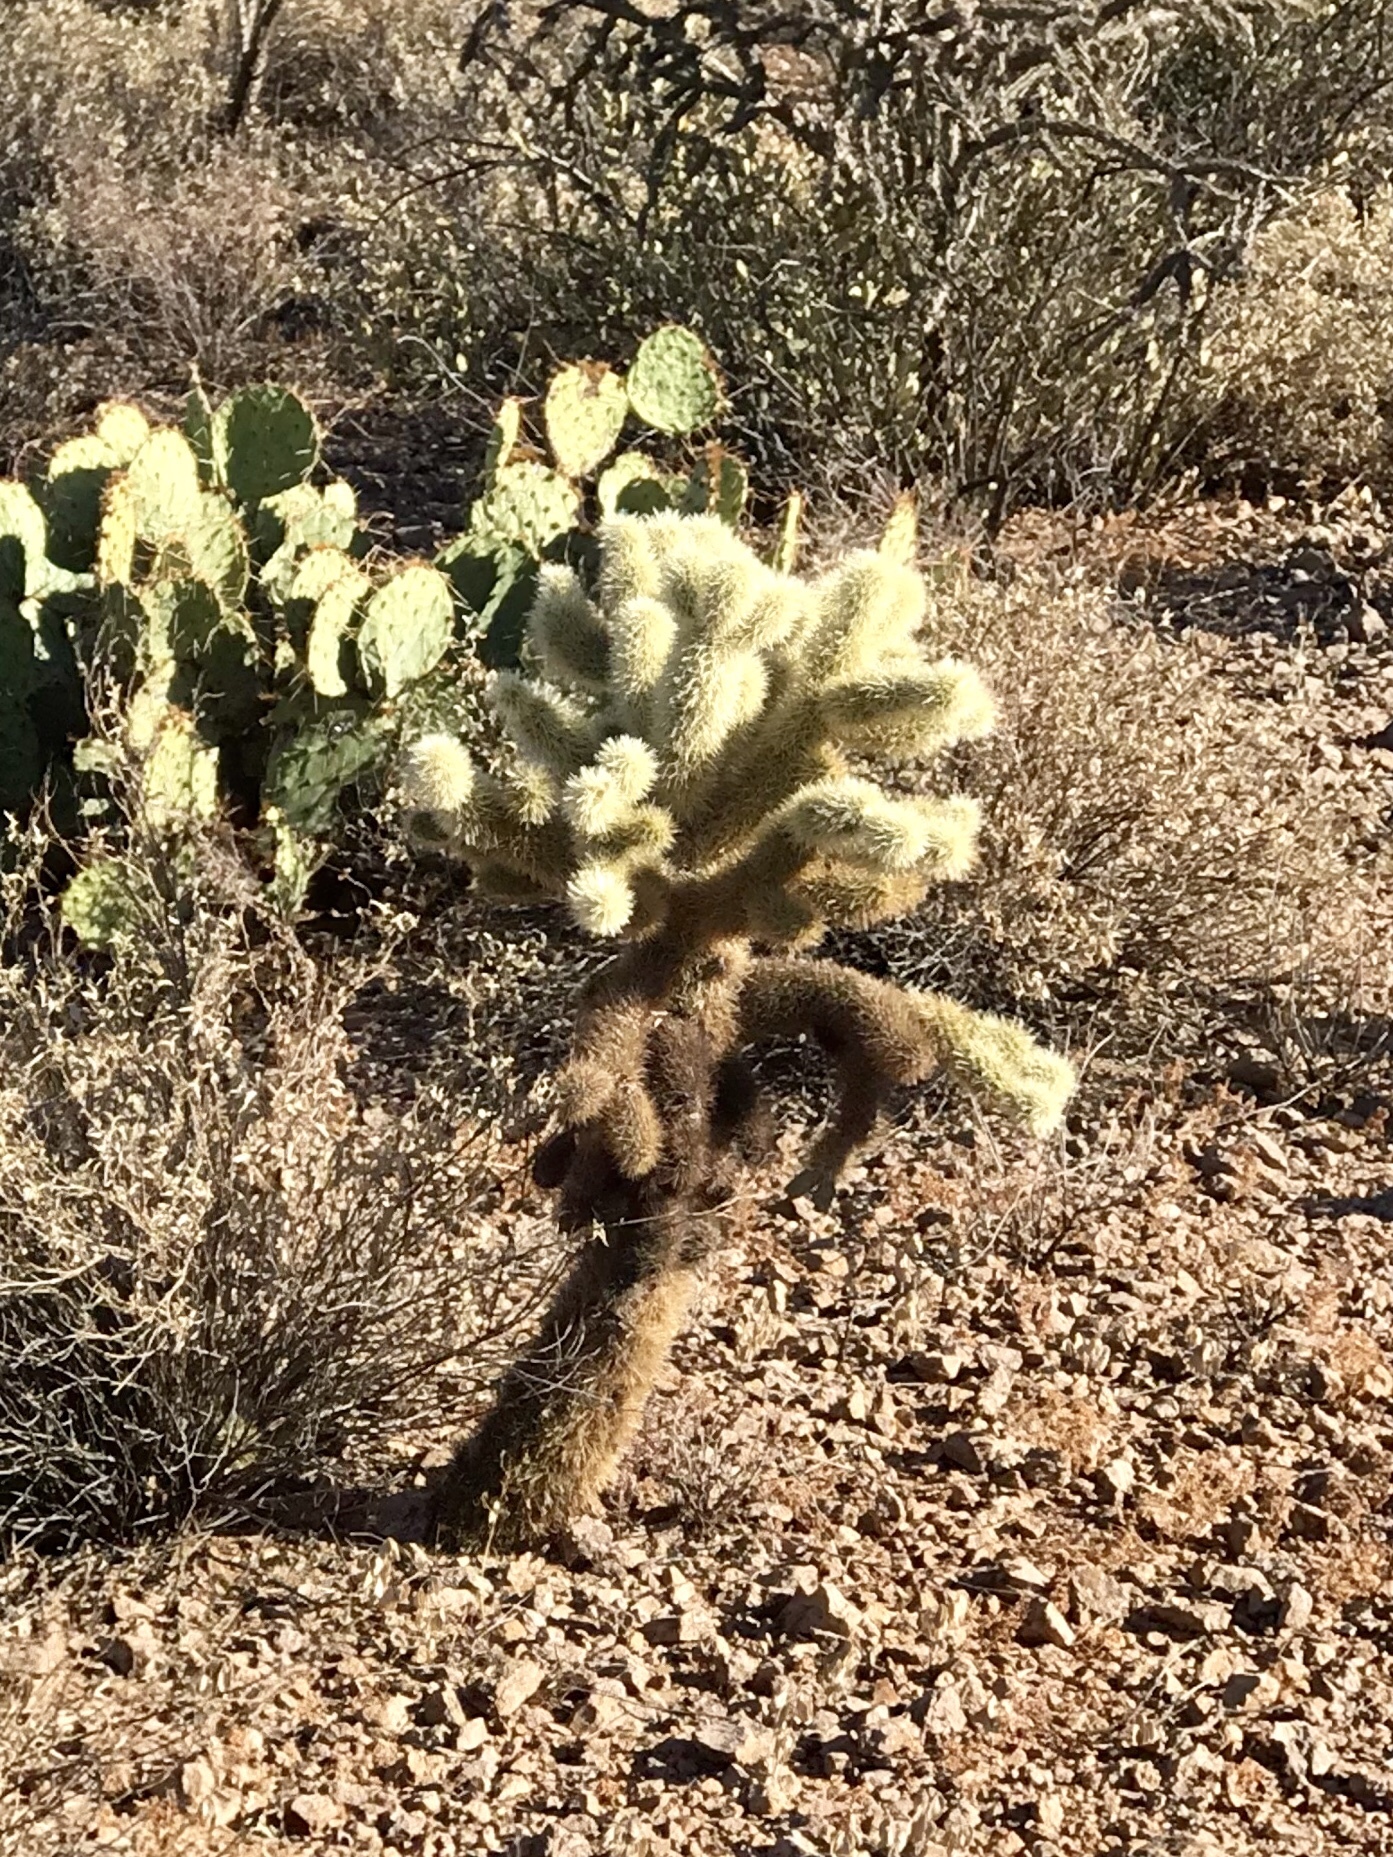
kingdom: Plantae
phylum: Tracheophyta
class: Magnoliopsida
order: Caryophyllales
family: Cactaceae
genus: Cylindropuntia
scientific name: Cylindropuntia fosbergii
